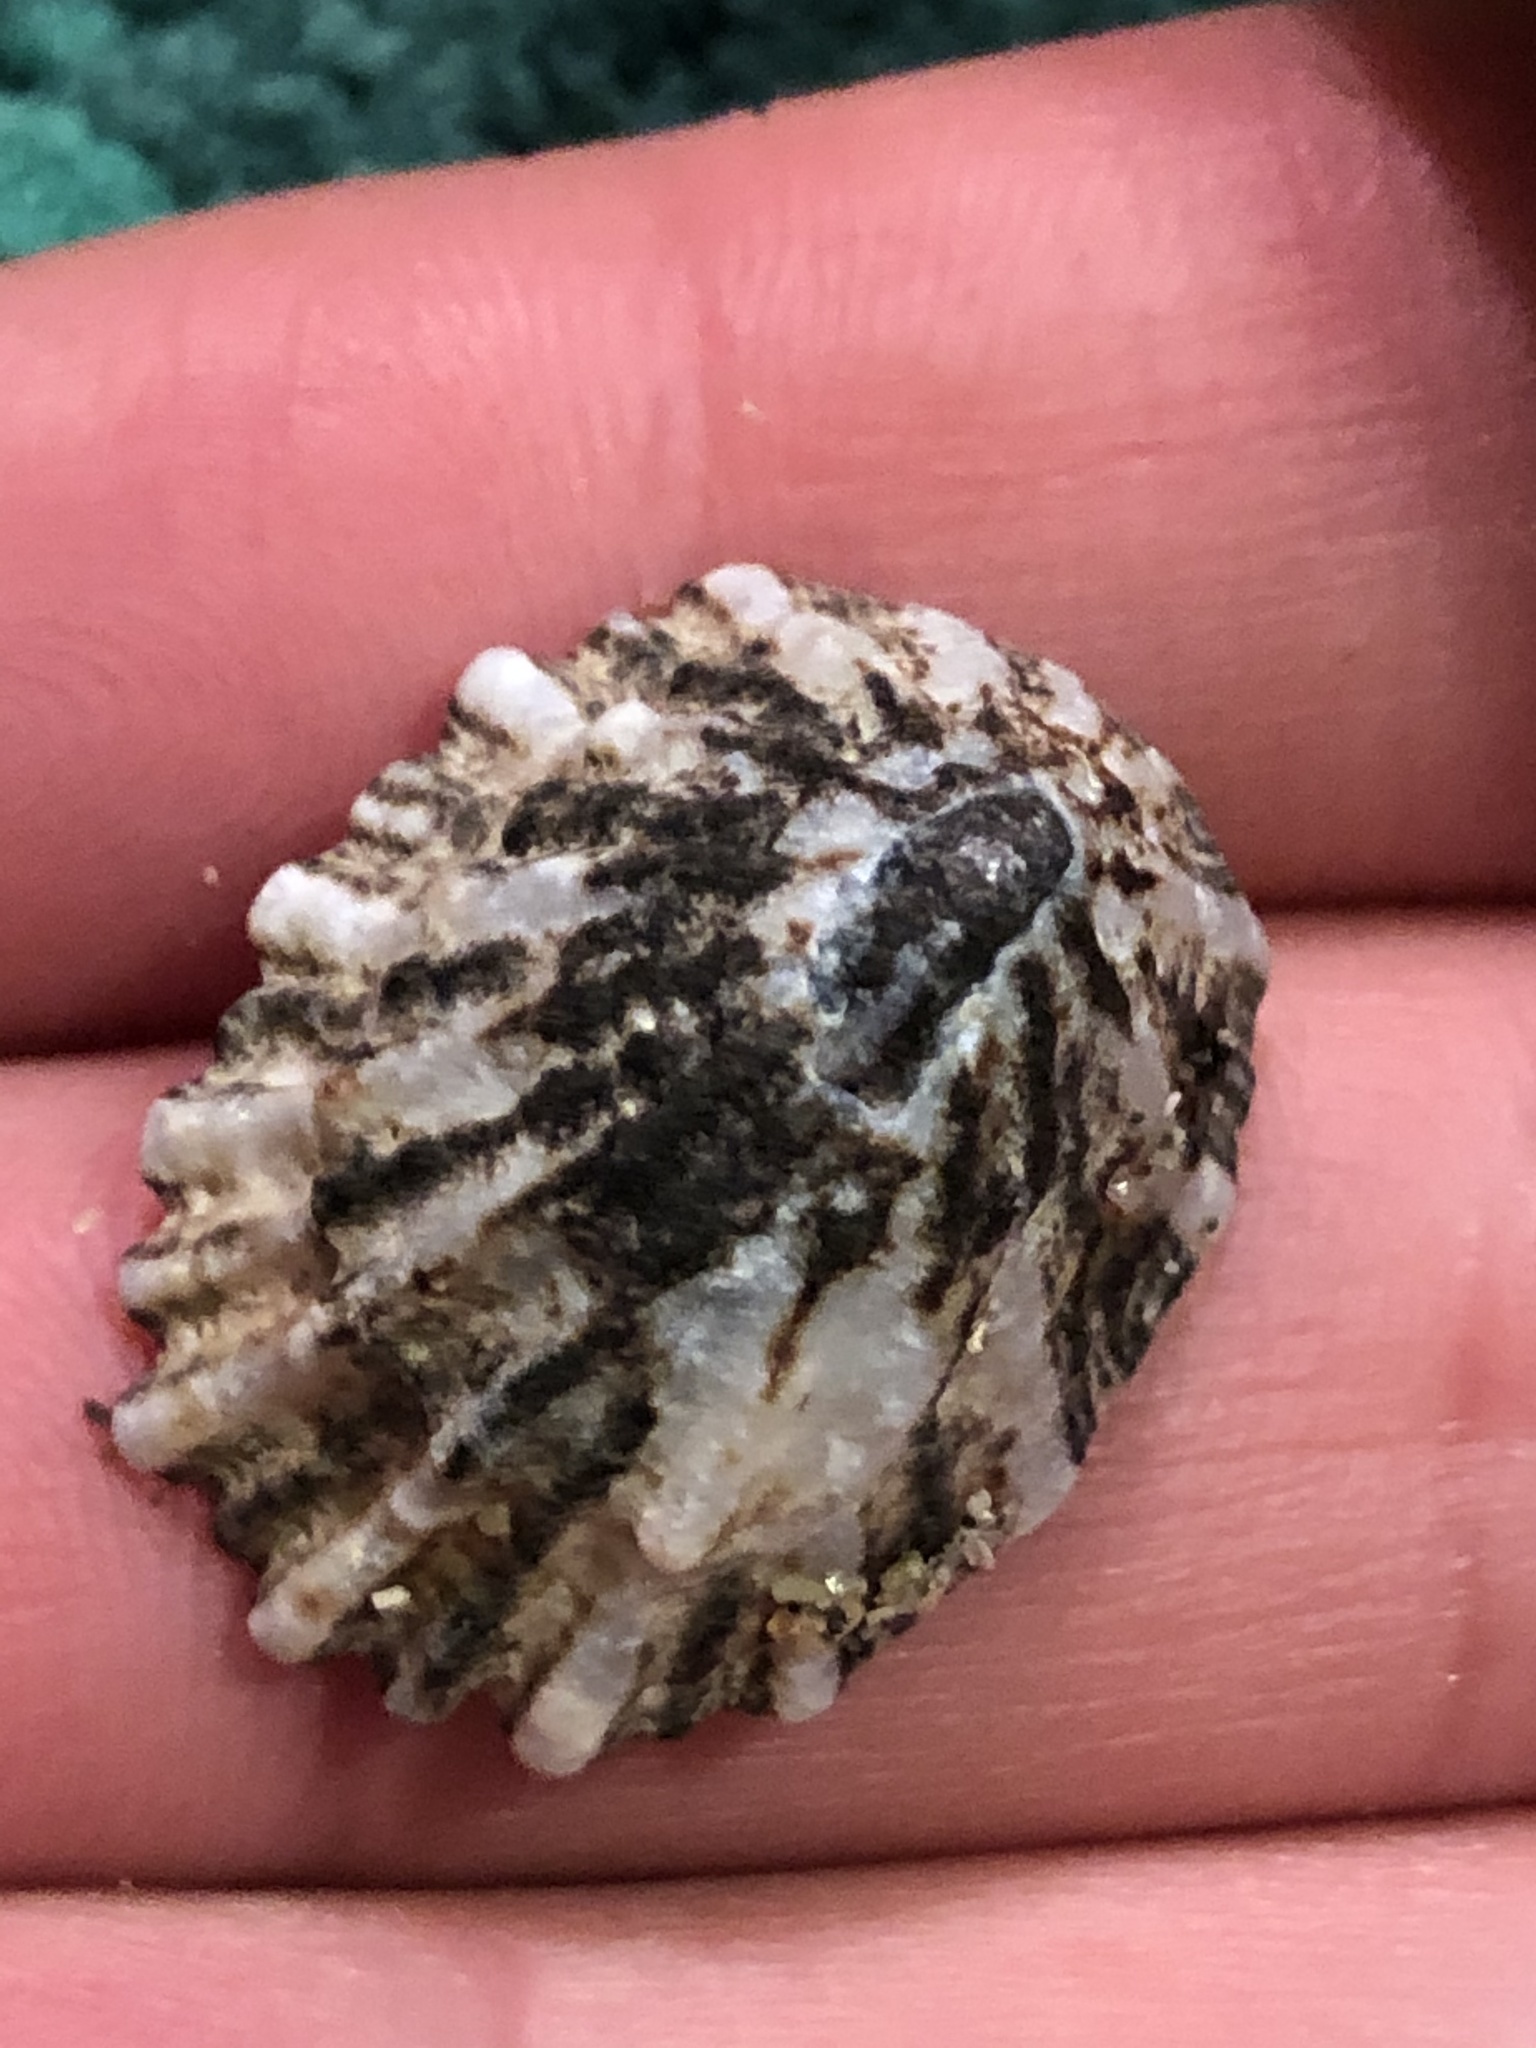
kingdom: Animalia
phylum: Mollusca
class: Gastropoda
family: Lottiidae
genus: Lottia
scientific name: Lottia scabra
